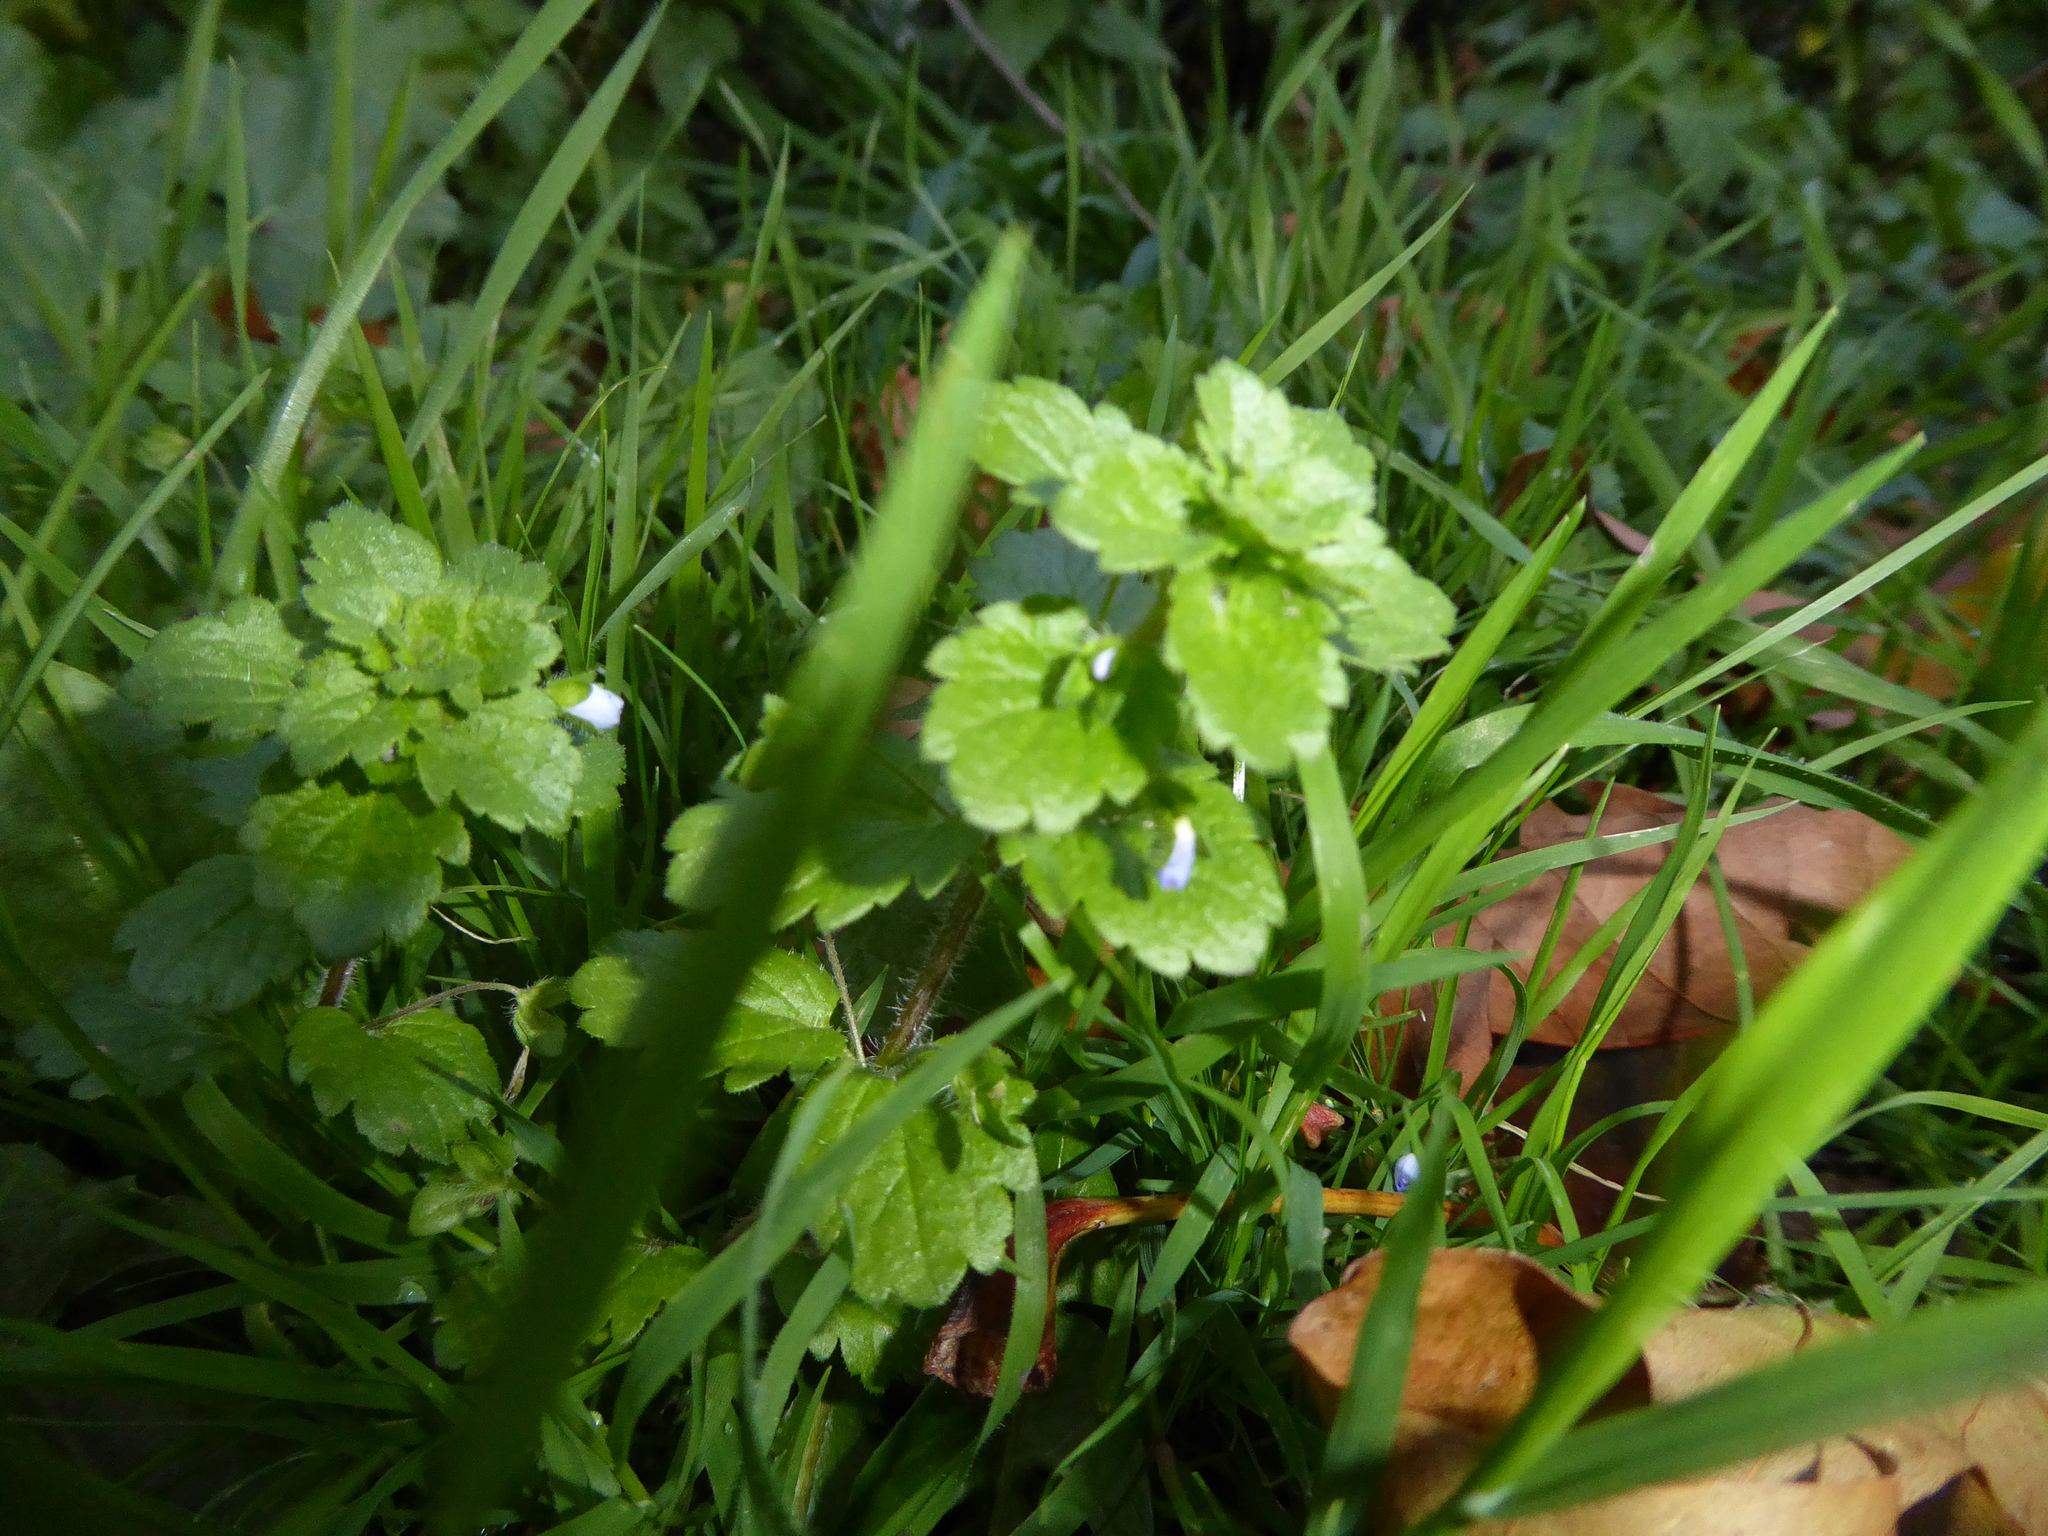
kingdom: Plantae
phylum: Tracheophyta
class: Magnoliopsida
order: Lamiales
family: Plantaginaceae
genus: Veronica
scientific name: Veronica persica
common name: Common field-speedwell
